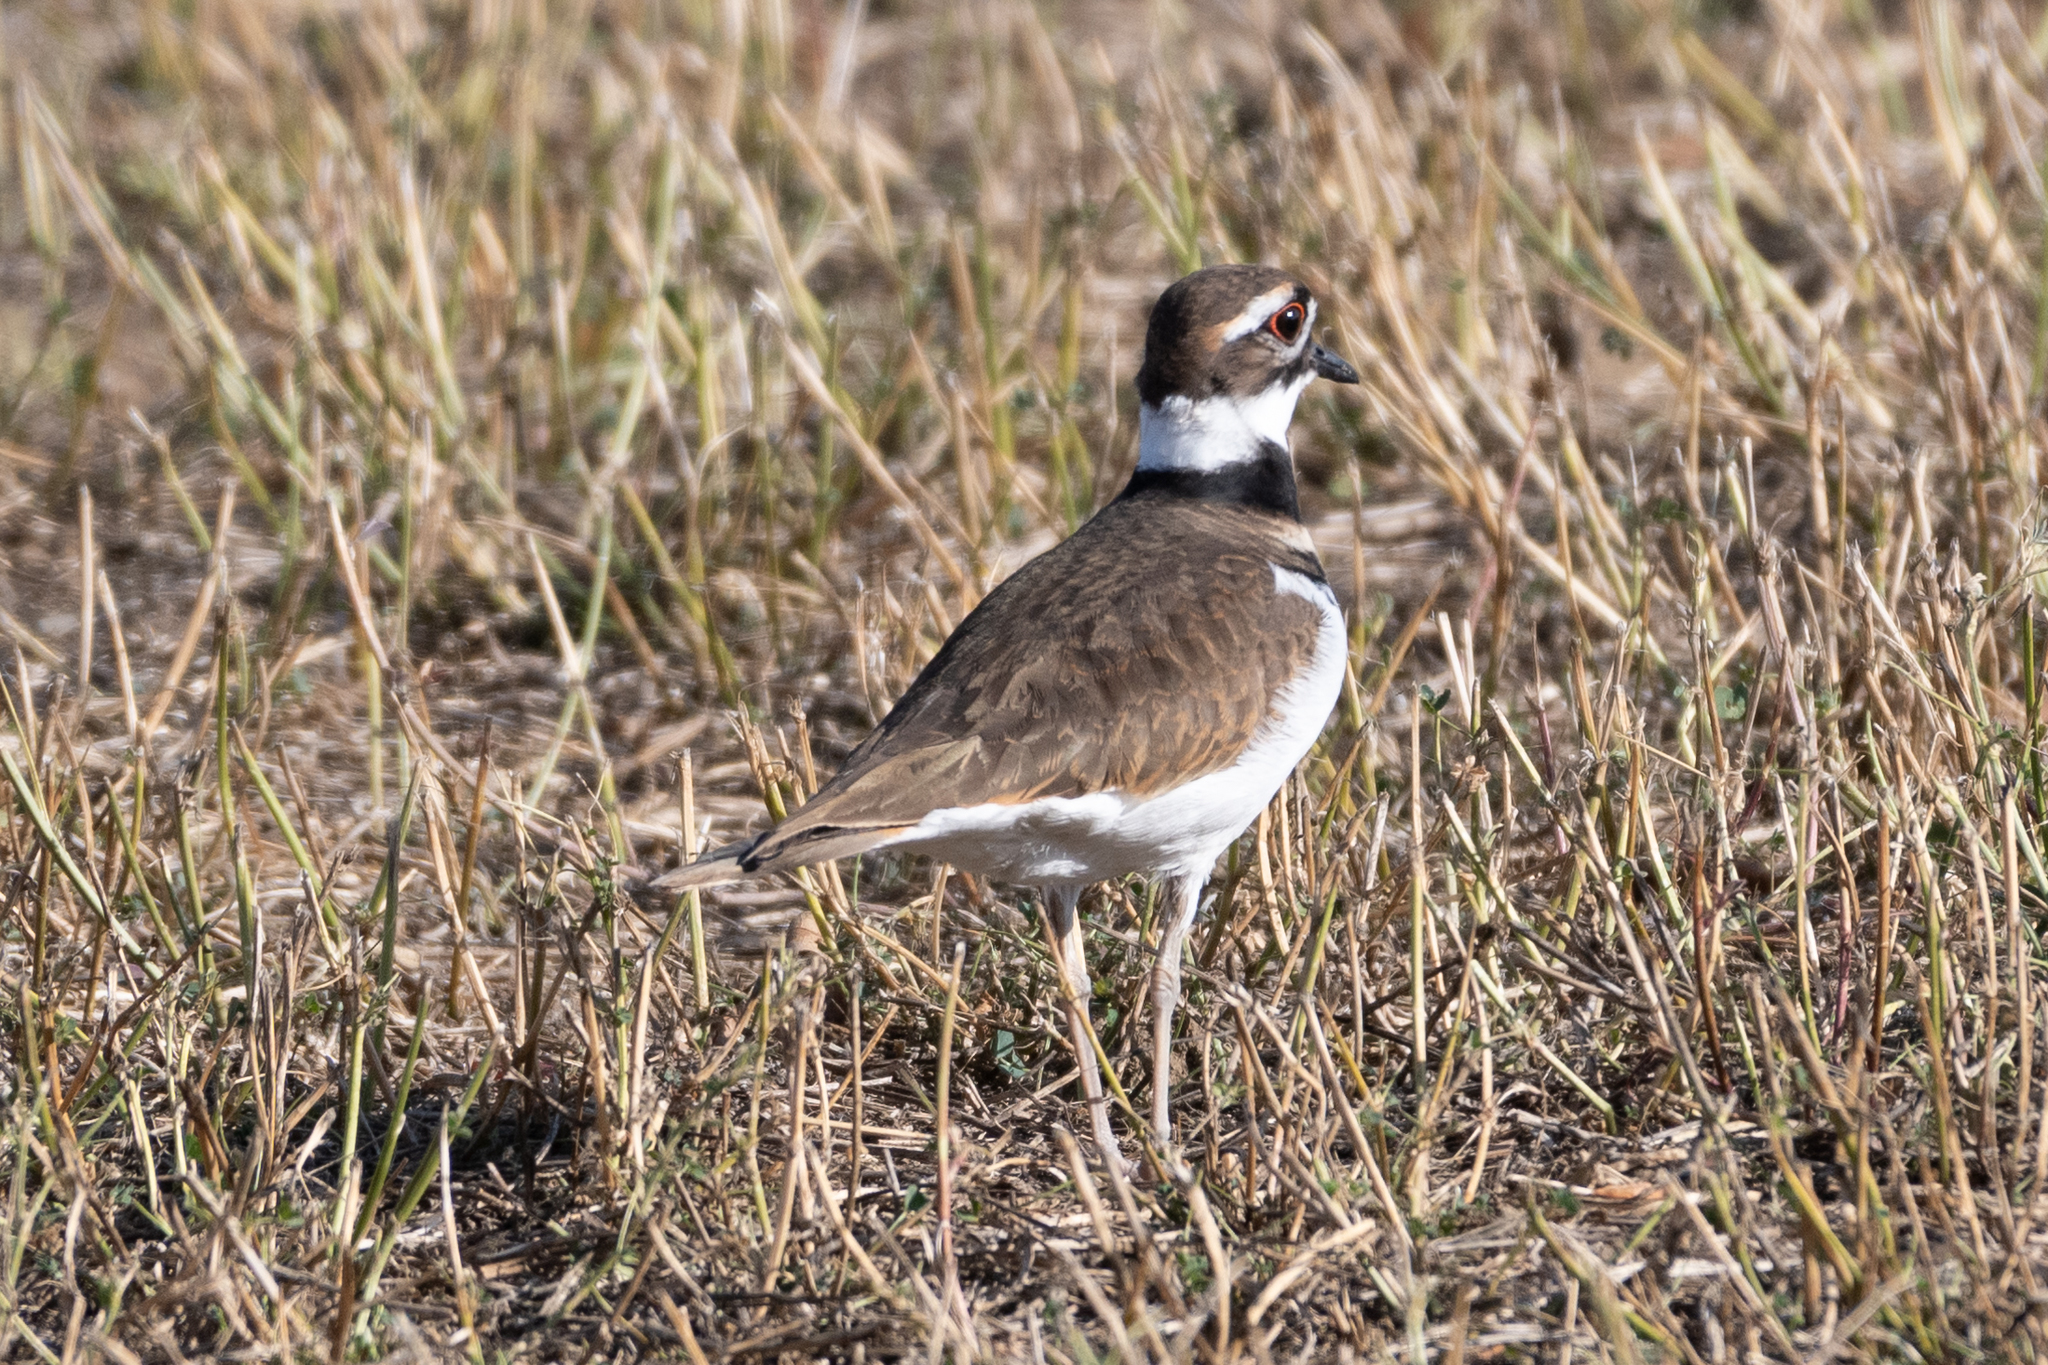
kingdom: Animalia
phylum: Chordata
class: Aves
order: Charadriiformes
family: Charadriidae
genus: Charadrius
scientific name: Charadrius vociferus
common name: Killdeer
